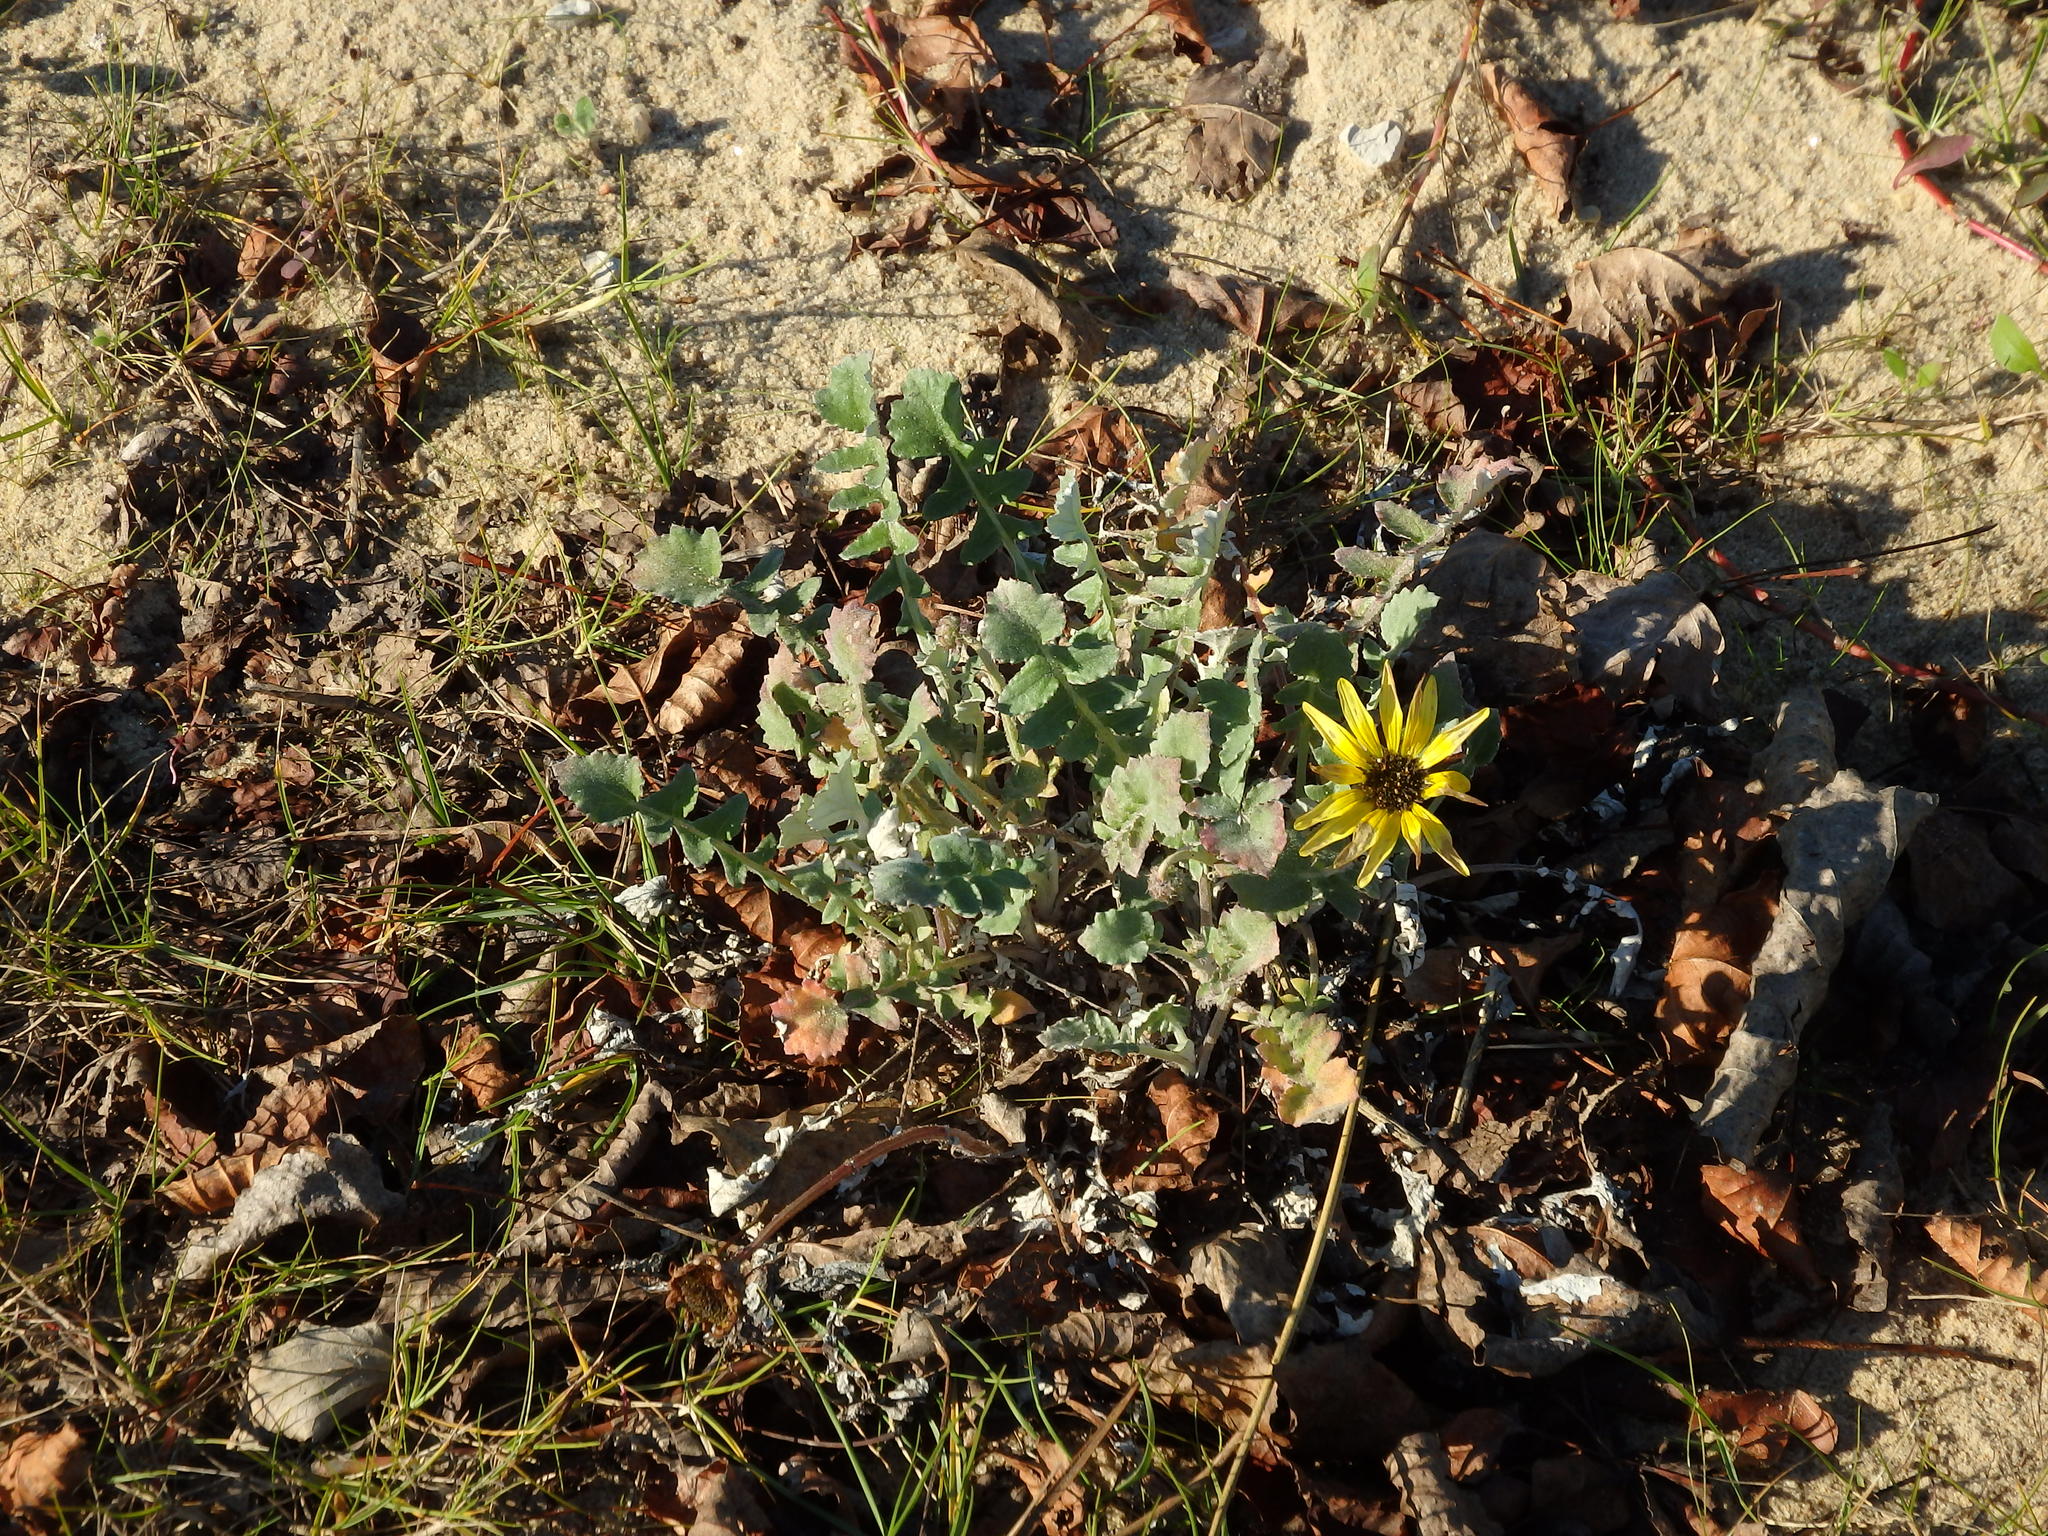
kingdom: Plantae
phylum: Tracheophyta
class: Magnoliopsida
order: Asterales
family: Asteraceae
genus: Arctotheca
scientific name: Arctotheca calendula
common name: Capeweed
